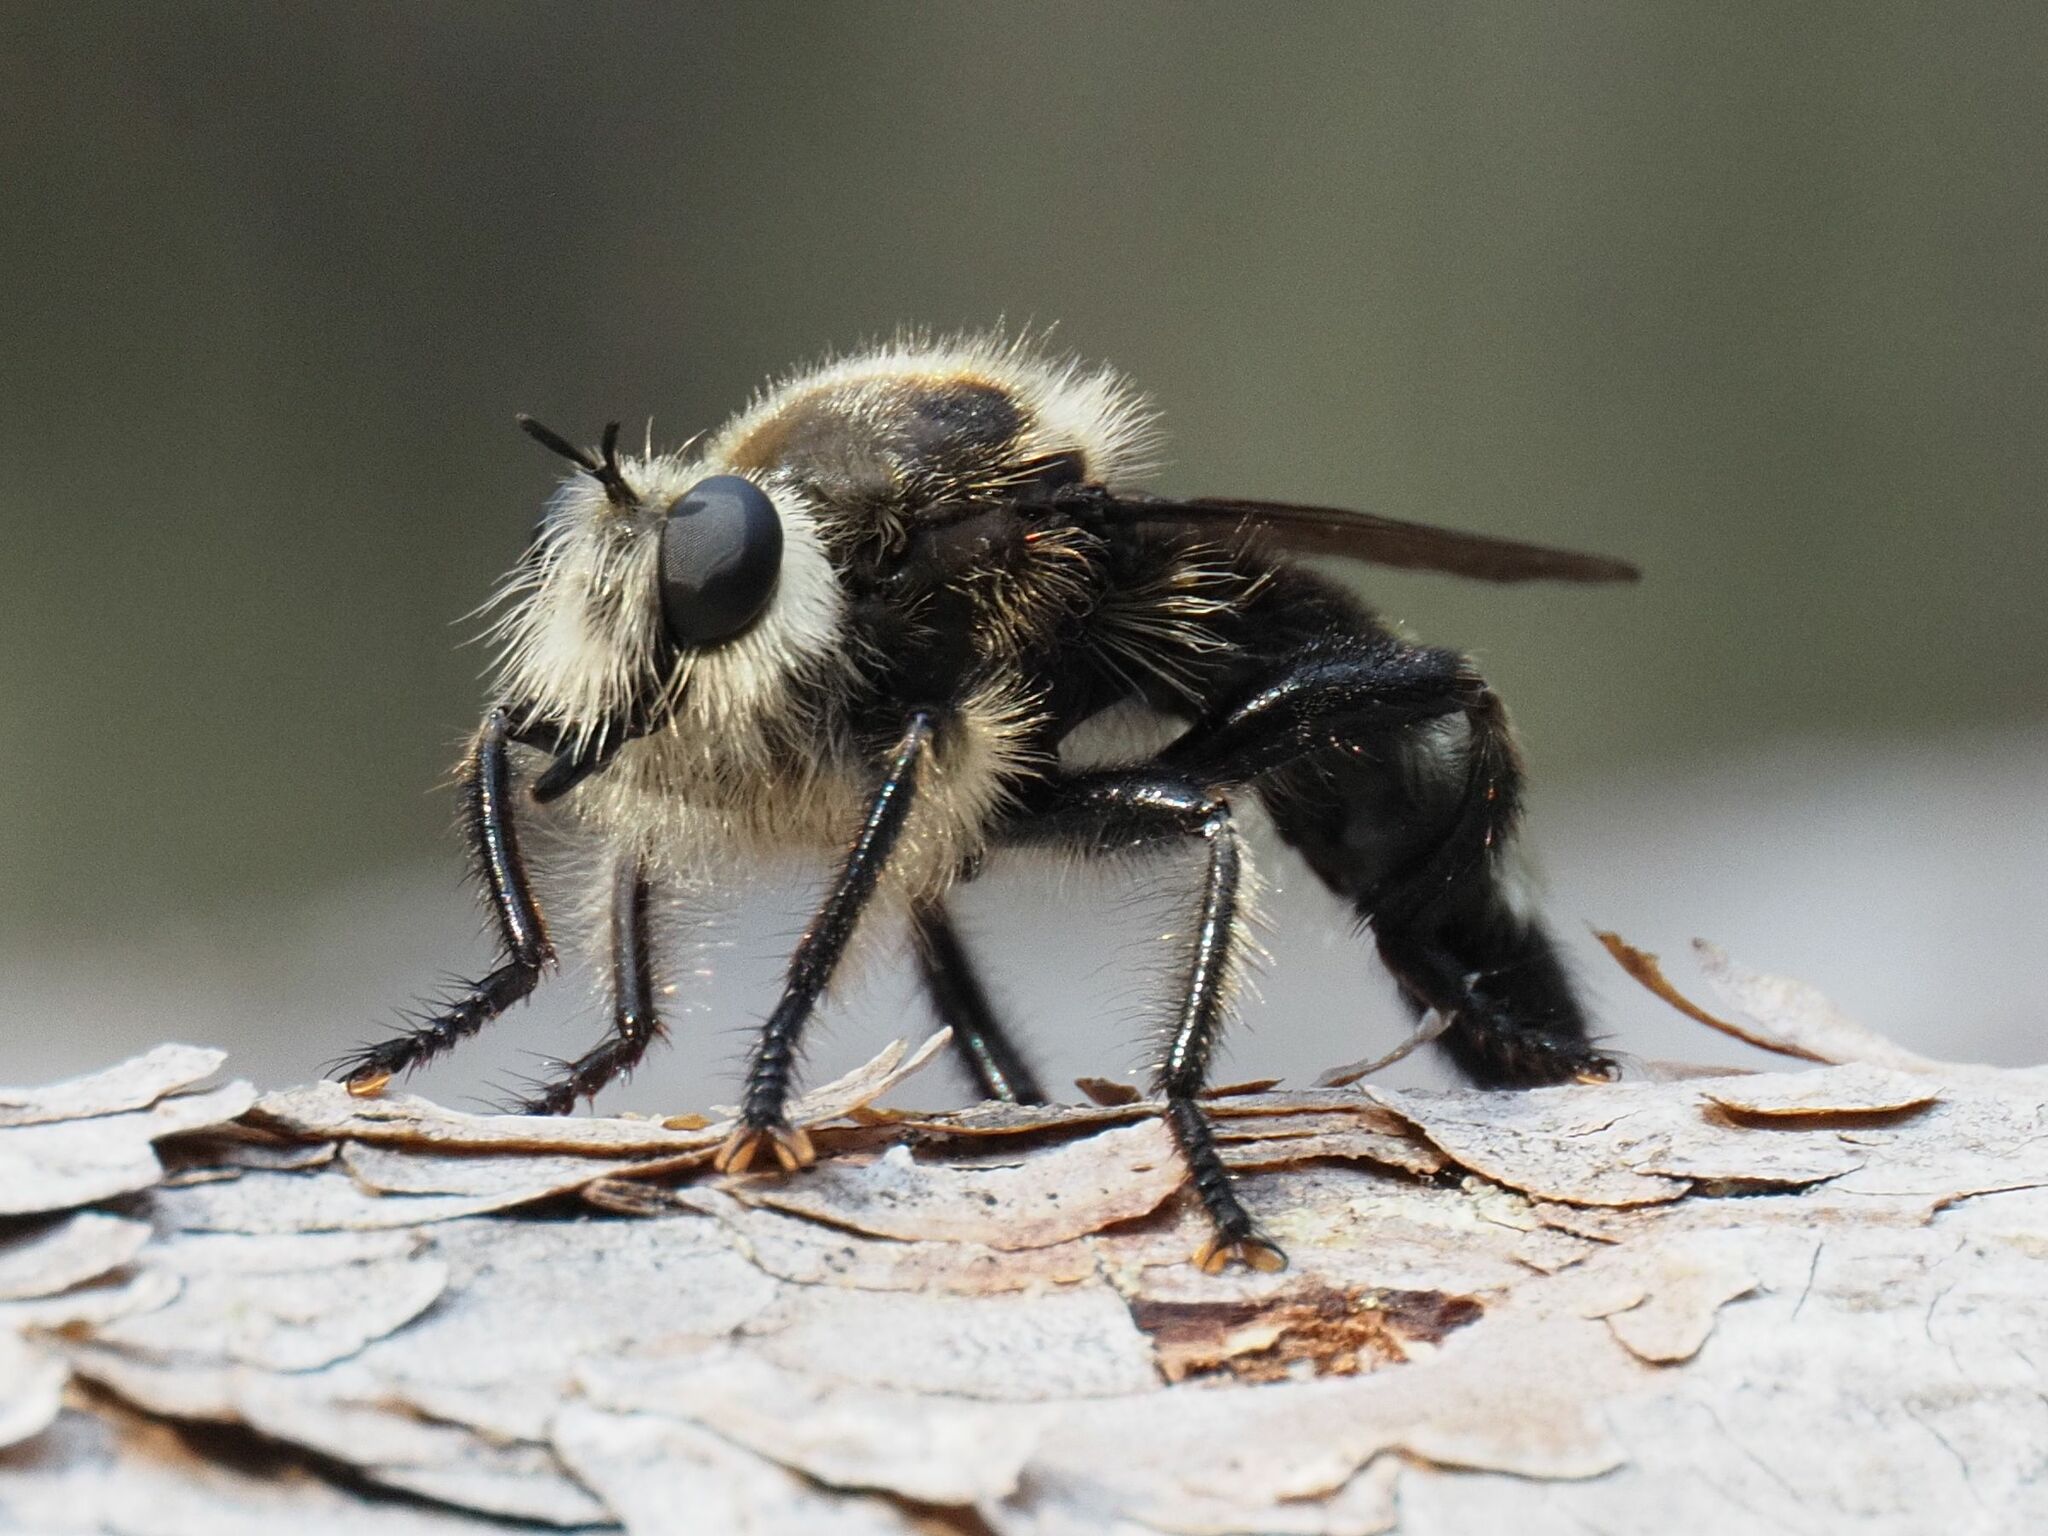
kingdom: Animalia
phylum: Arthropoda
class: Insecta
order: Diptera
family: Asilidae
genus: Laphria
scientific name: Laphria gibbosa
